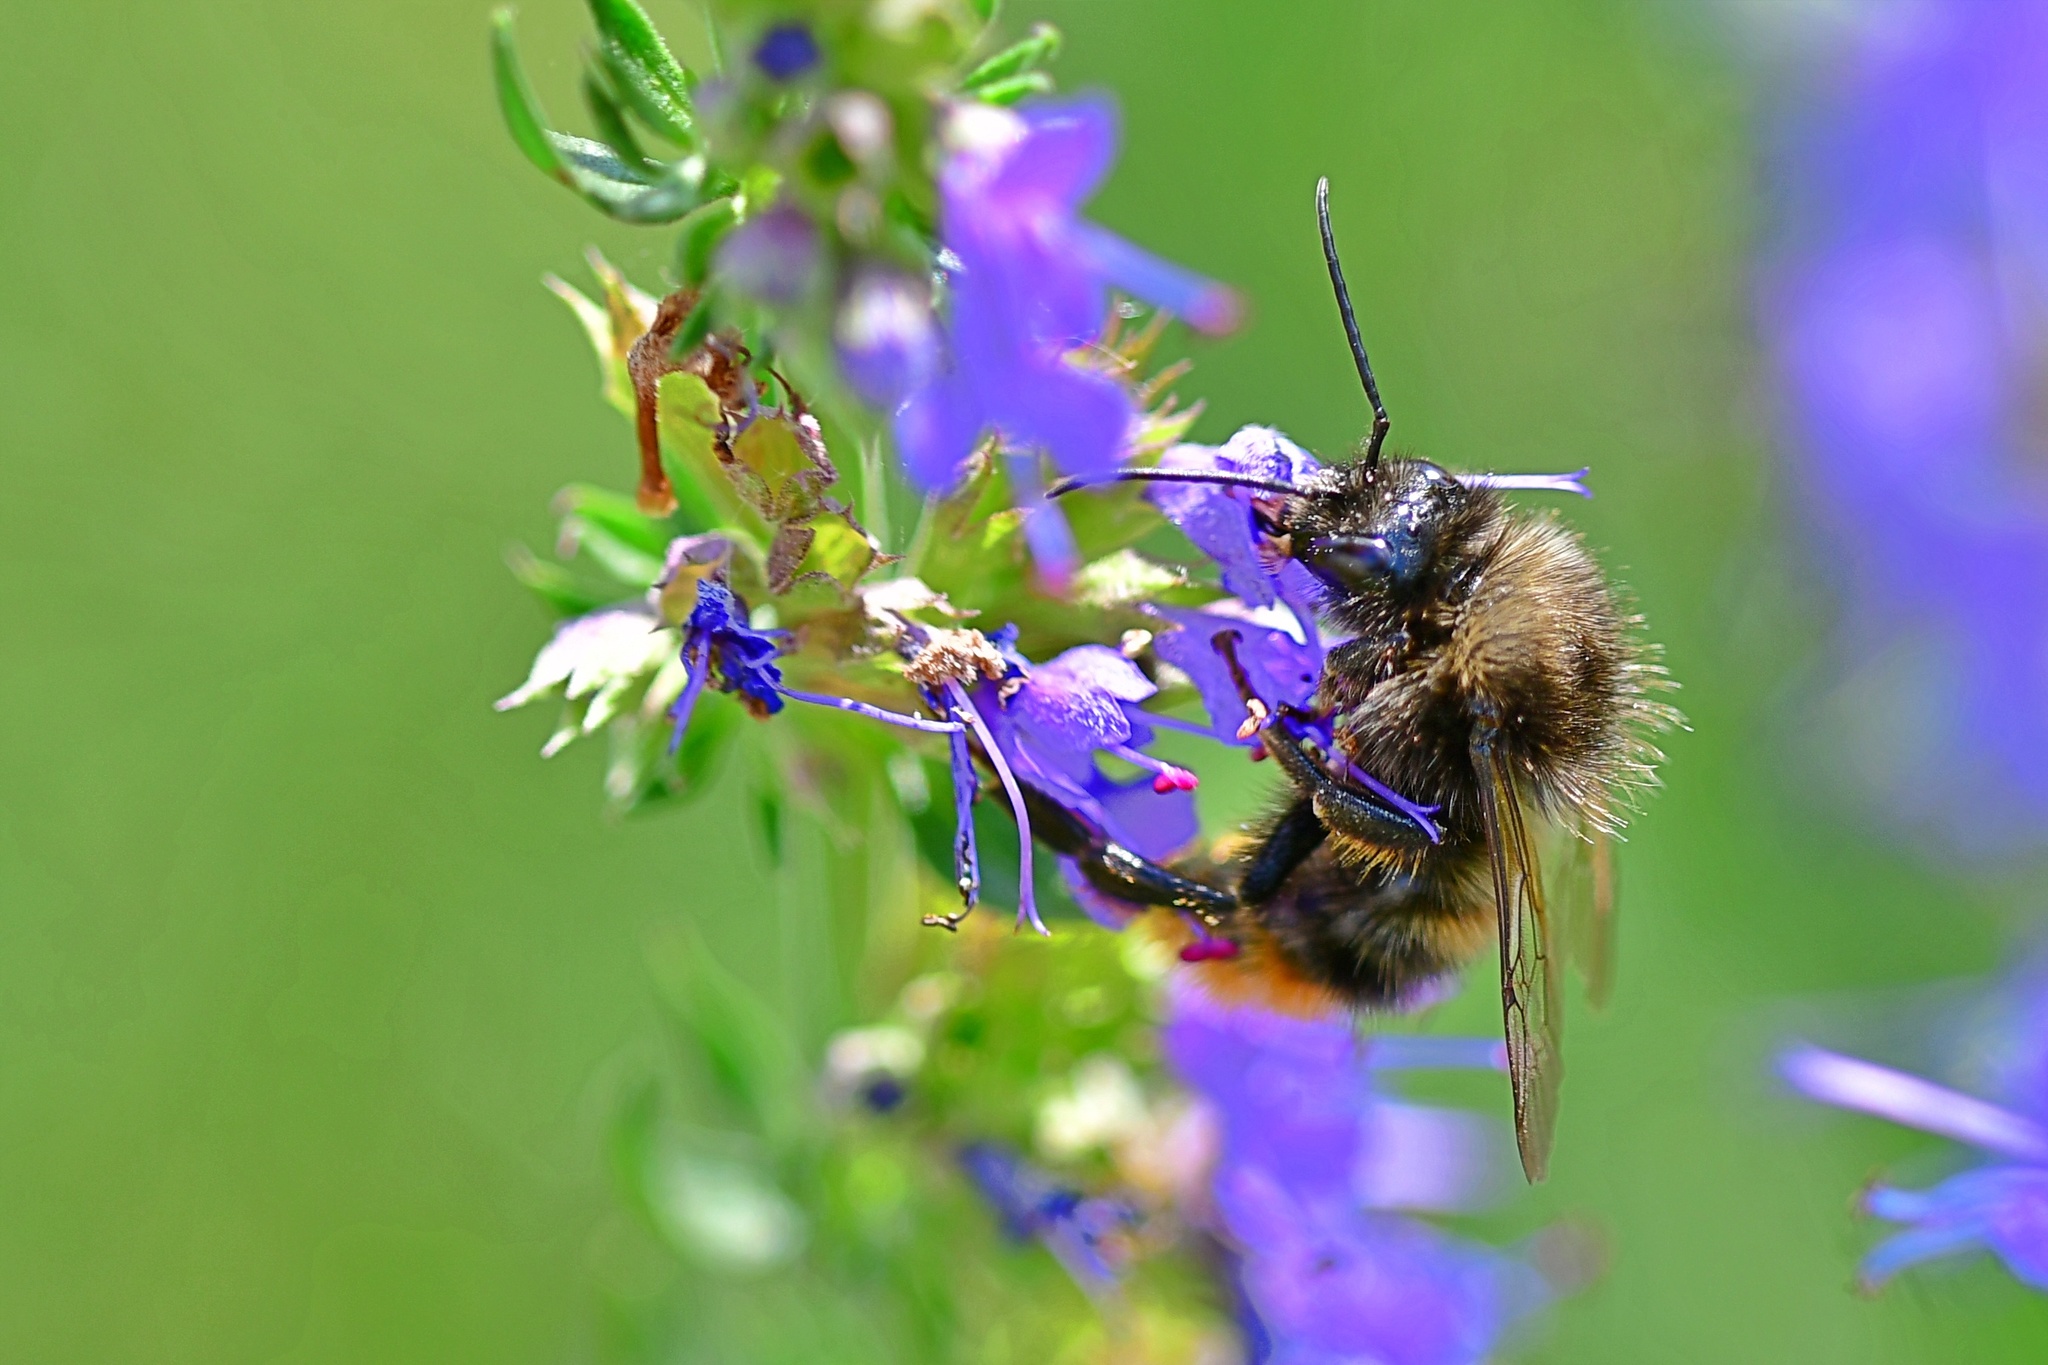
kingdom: Animalia
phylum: Arthropoda
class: Insecta
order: Hymenoptera
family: Apidae
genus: Bombus
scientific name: Bombus ruderarius
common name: Red-shanked carder-bee
